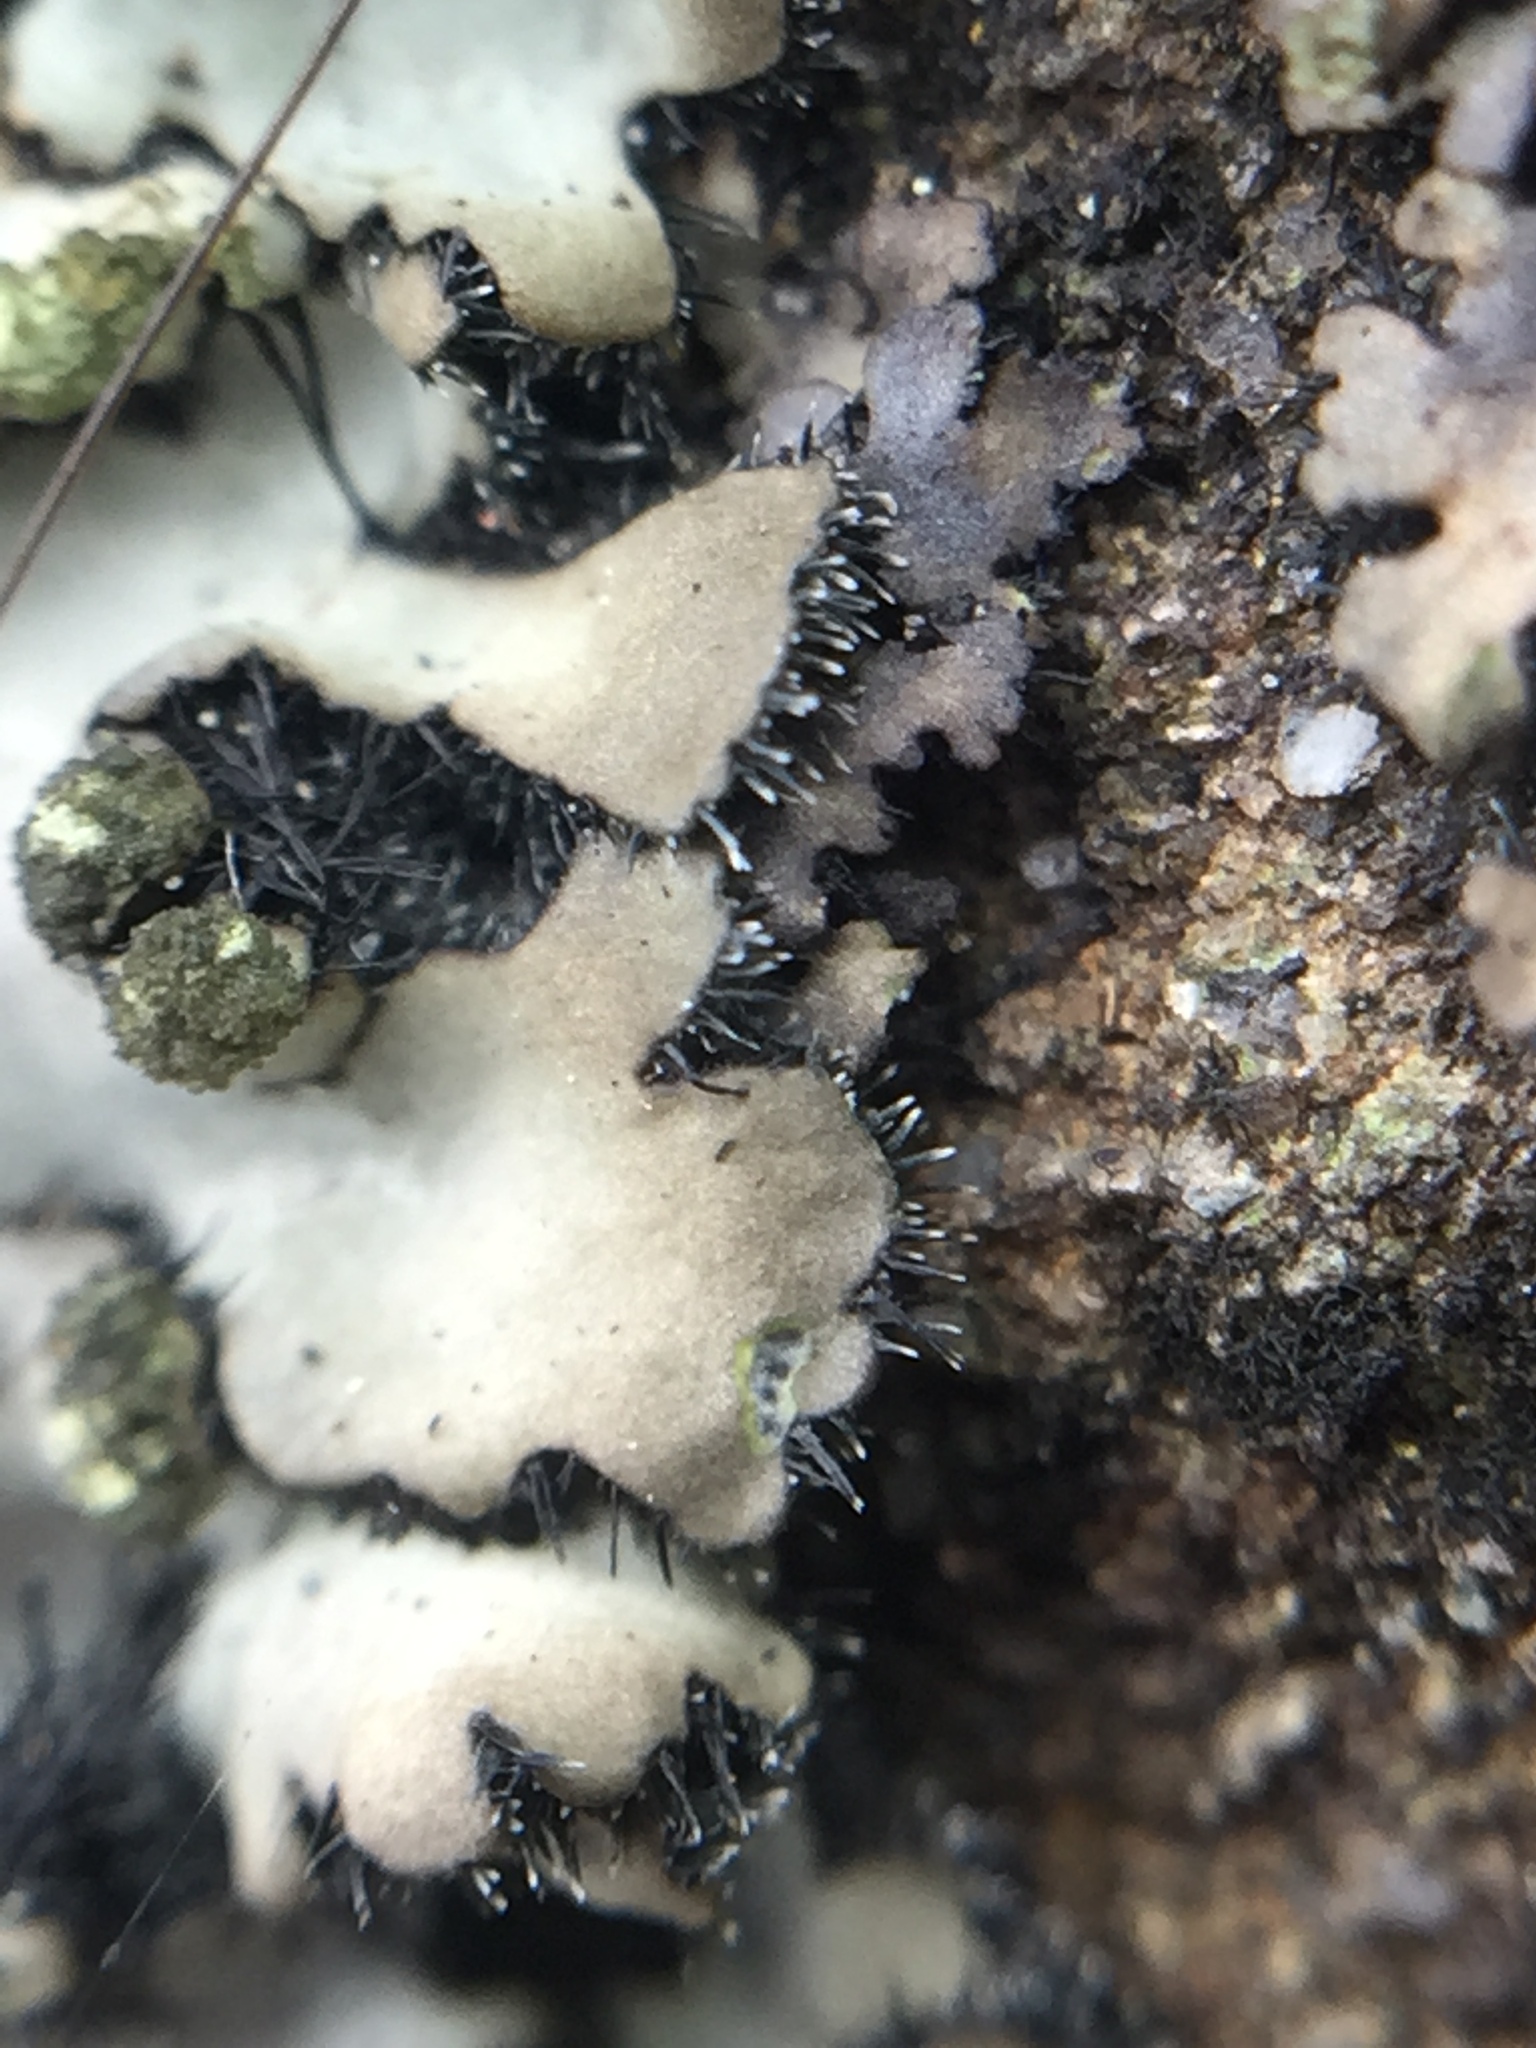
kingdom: Fungi
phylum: Ascomycota
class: Lecanoromycetes
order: Caliciales
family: Physciaceae
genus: Phaeophyscia
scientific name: Phaeophyscia hispidula
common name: Whiskered shadow lichen
